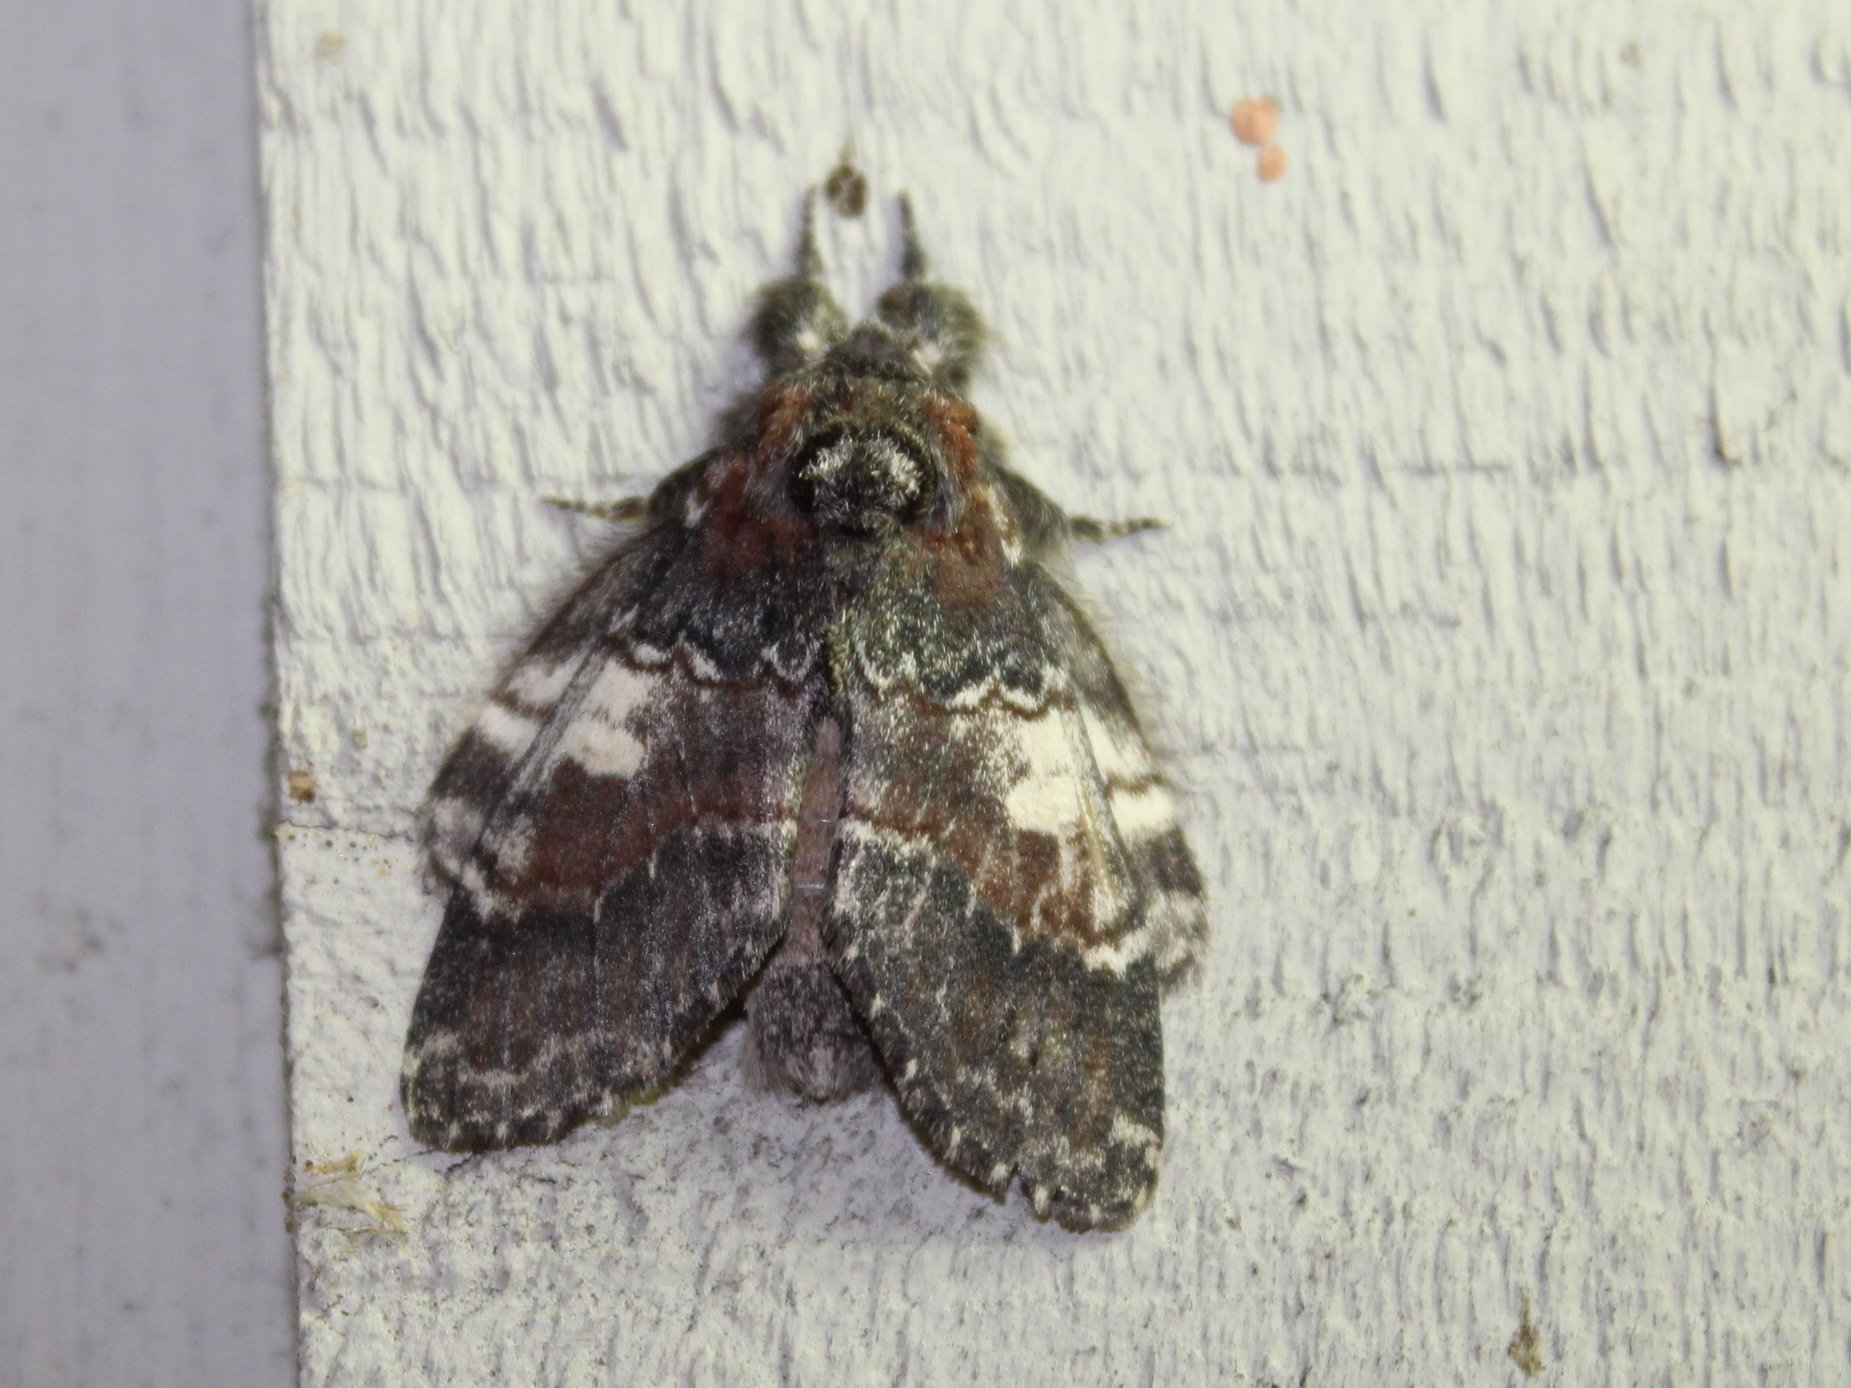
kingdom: Animalia
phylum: Arthropoda
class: Insecta
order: Lepidoptera
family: Notodontidae
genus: Peridea
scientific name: Peridea ferruginea
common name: Chocolate prominent
